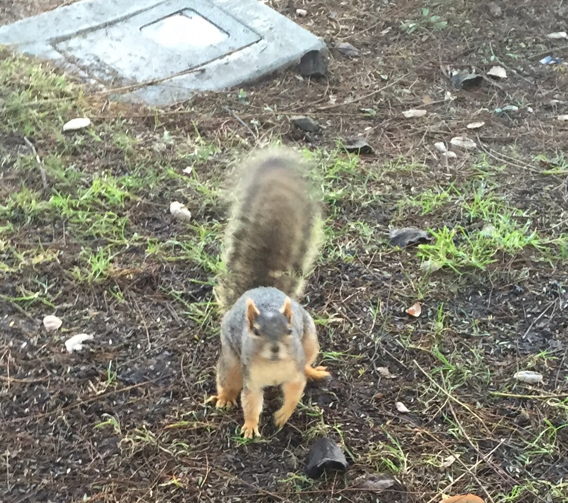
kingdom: Animalia
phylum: Chordata
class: Mammalia
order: Rodentia
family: Sciuridae
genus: Sciurus
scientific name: Sciurus niger
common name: Fox squirrel
